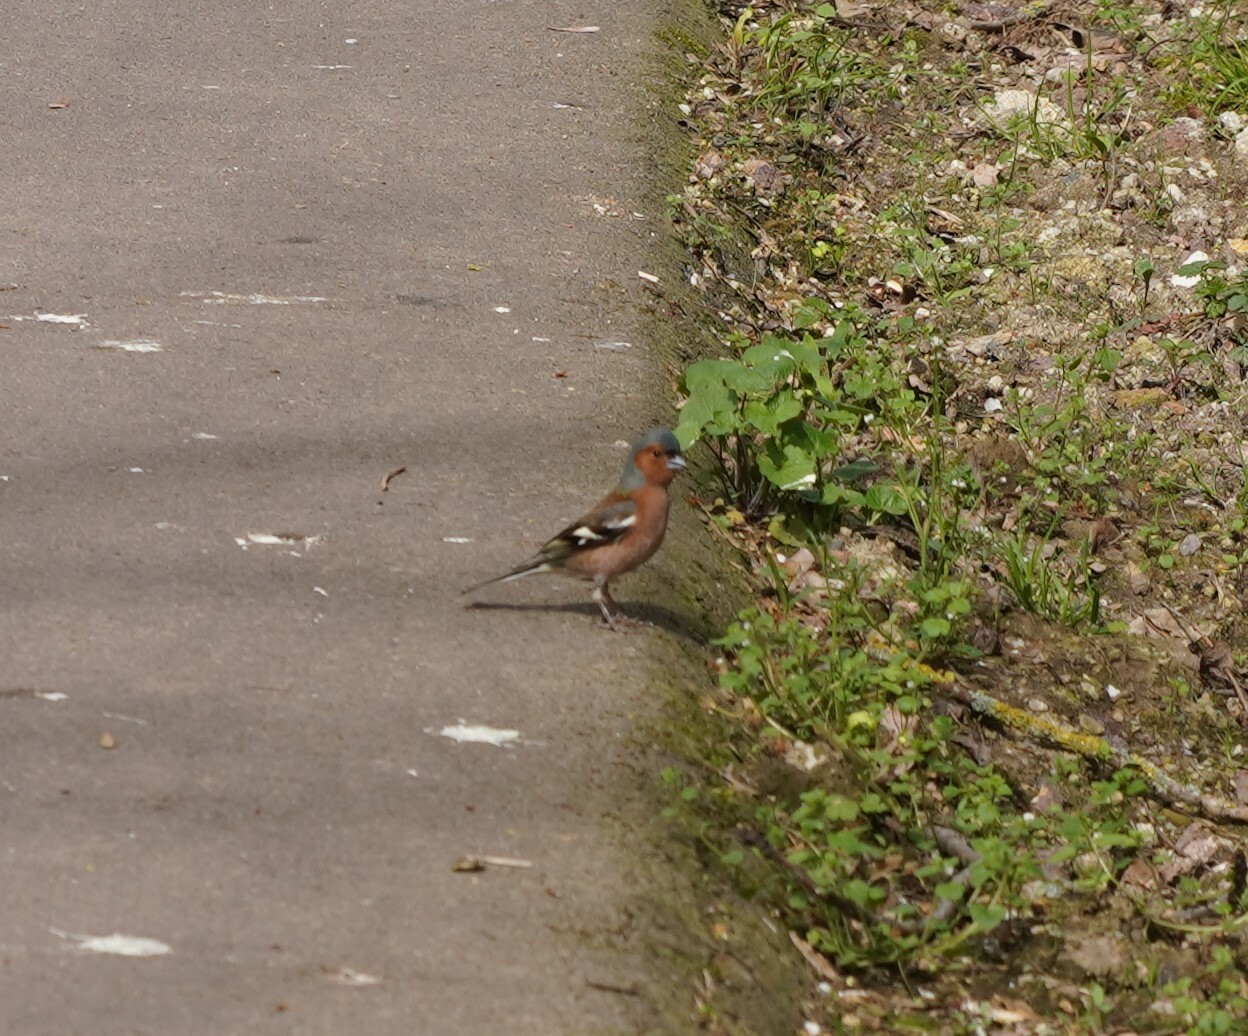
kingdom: Animalia
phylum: Chordata
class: Aves
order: Passeriformes
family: Fringillidae
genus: Fringilla
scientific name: Fringilla coelebs
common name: Common chaffinch
